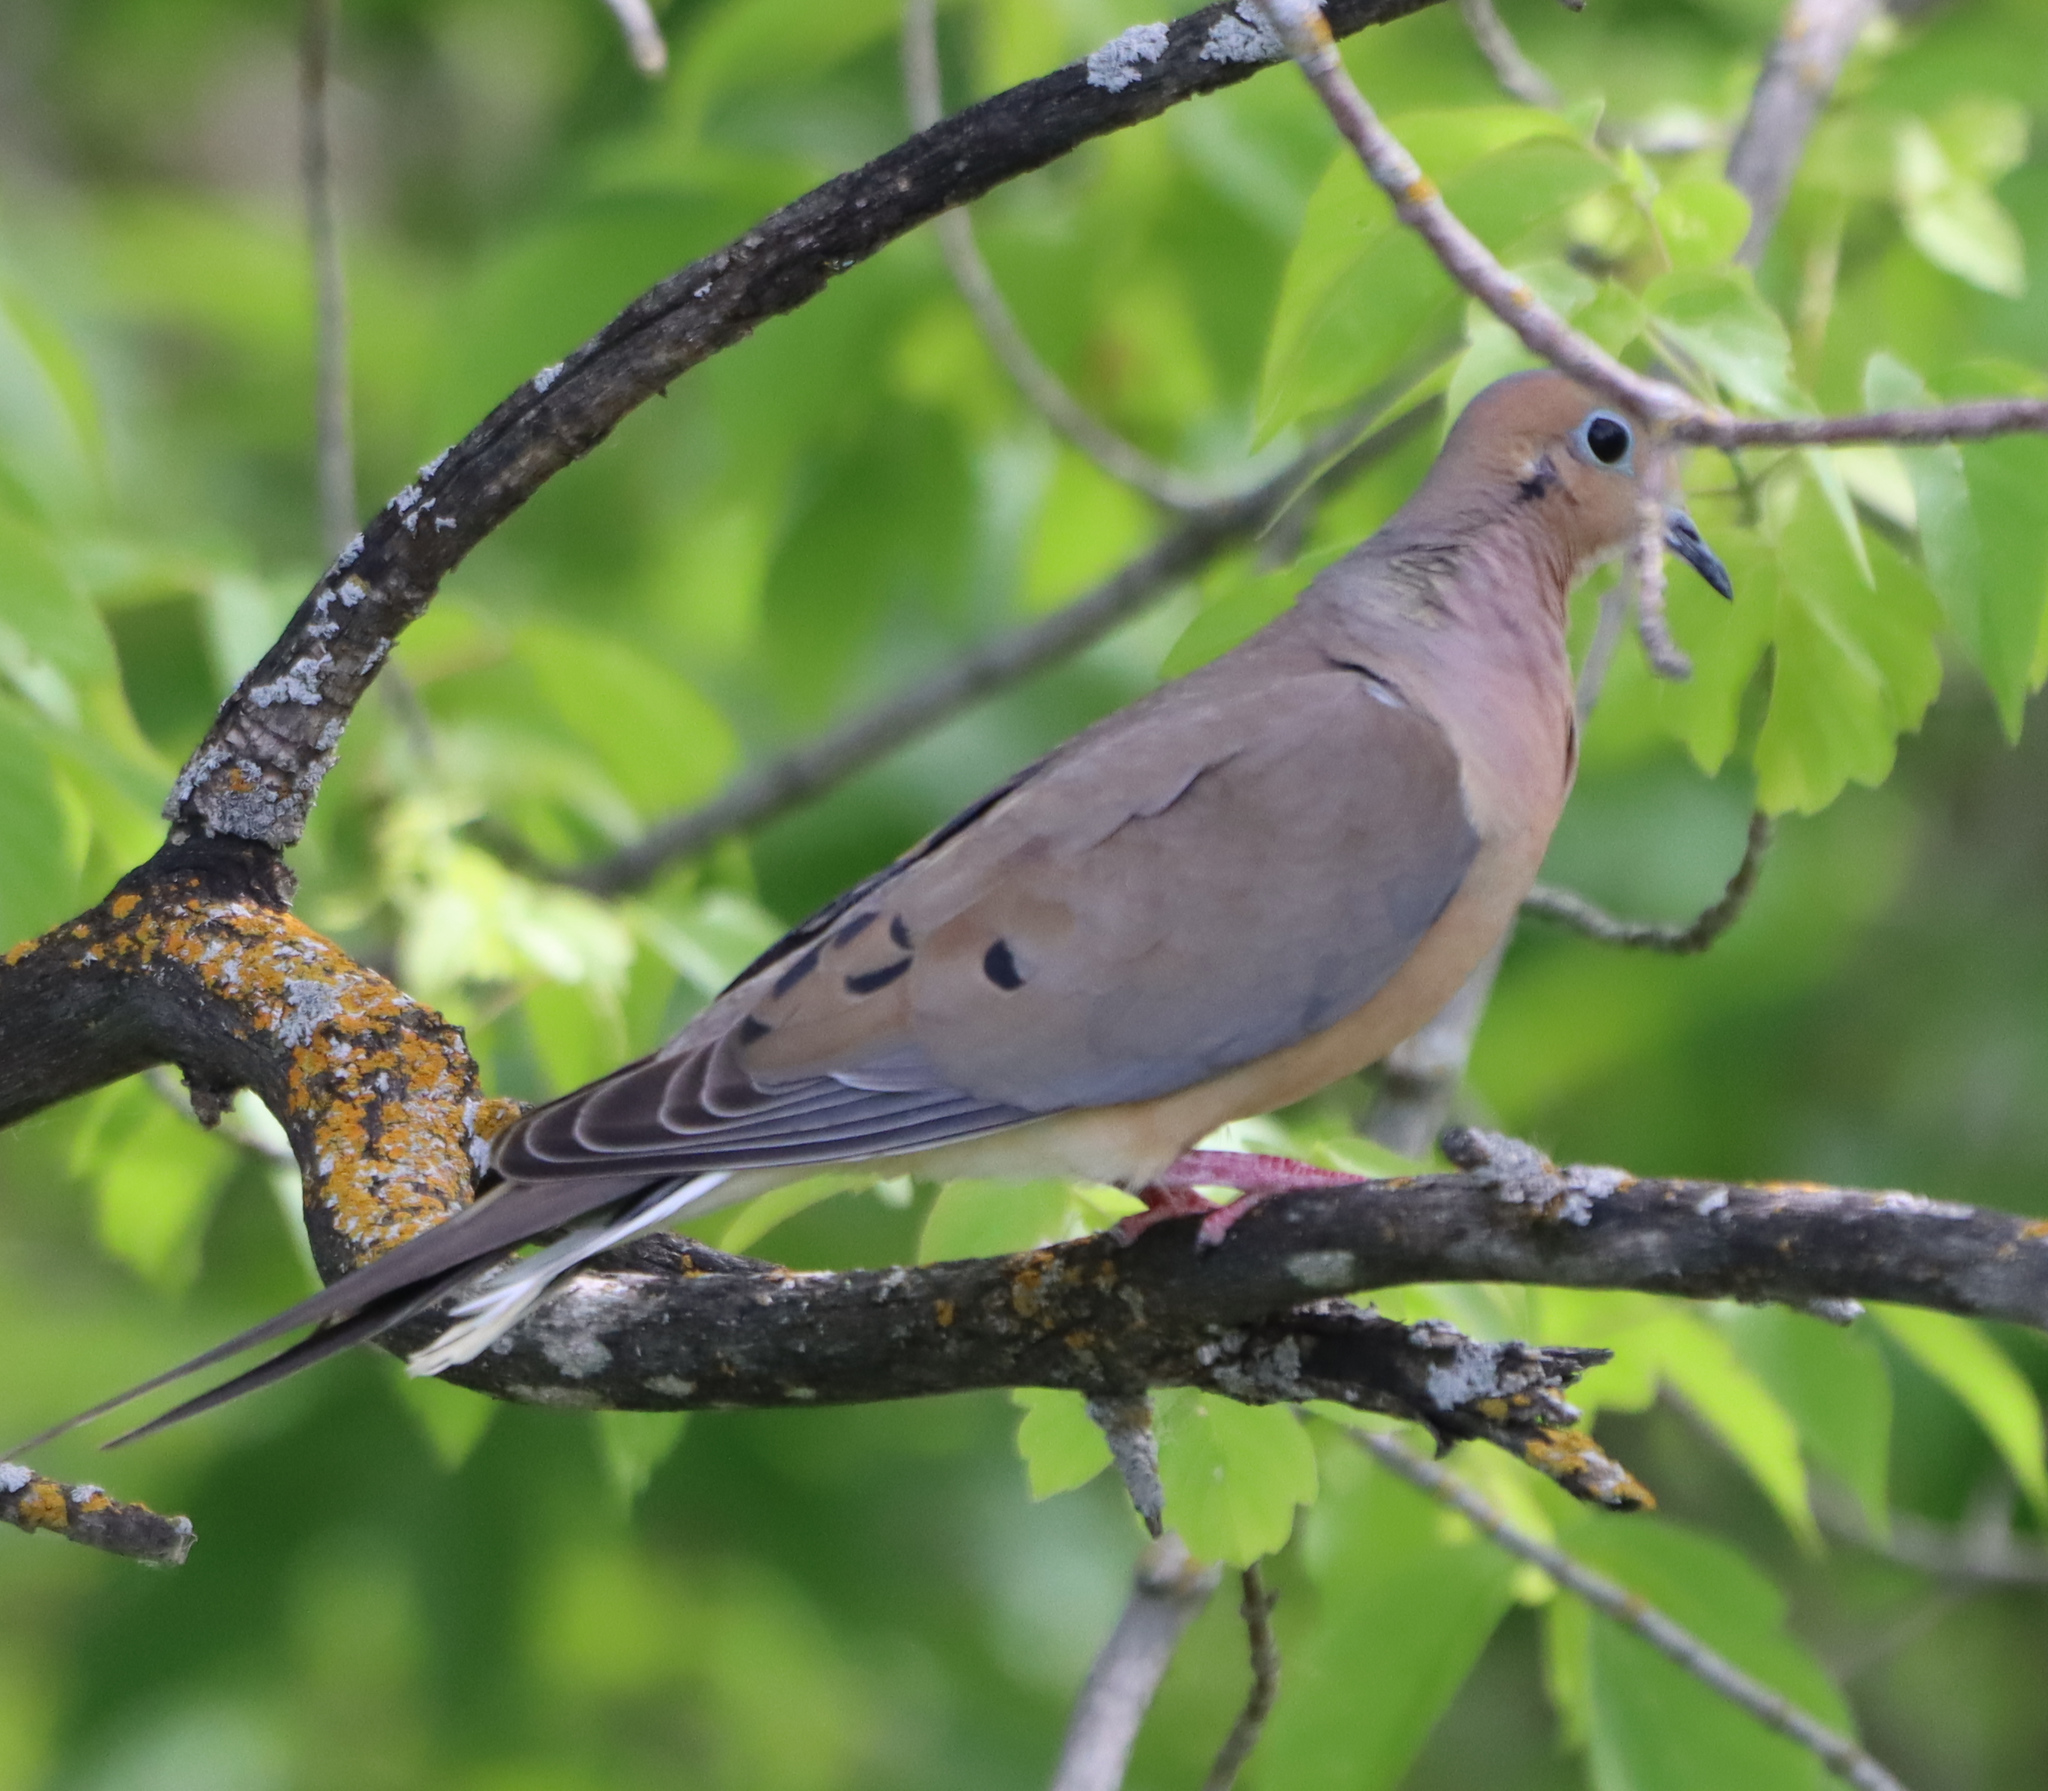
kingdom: Animalia
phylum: Chordata
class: Aves
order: Columbiformes
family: Columbidae
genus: Zenaida
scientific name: Zenaida macroura
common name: Mourning dove
